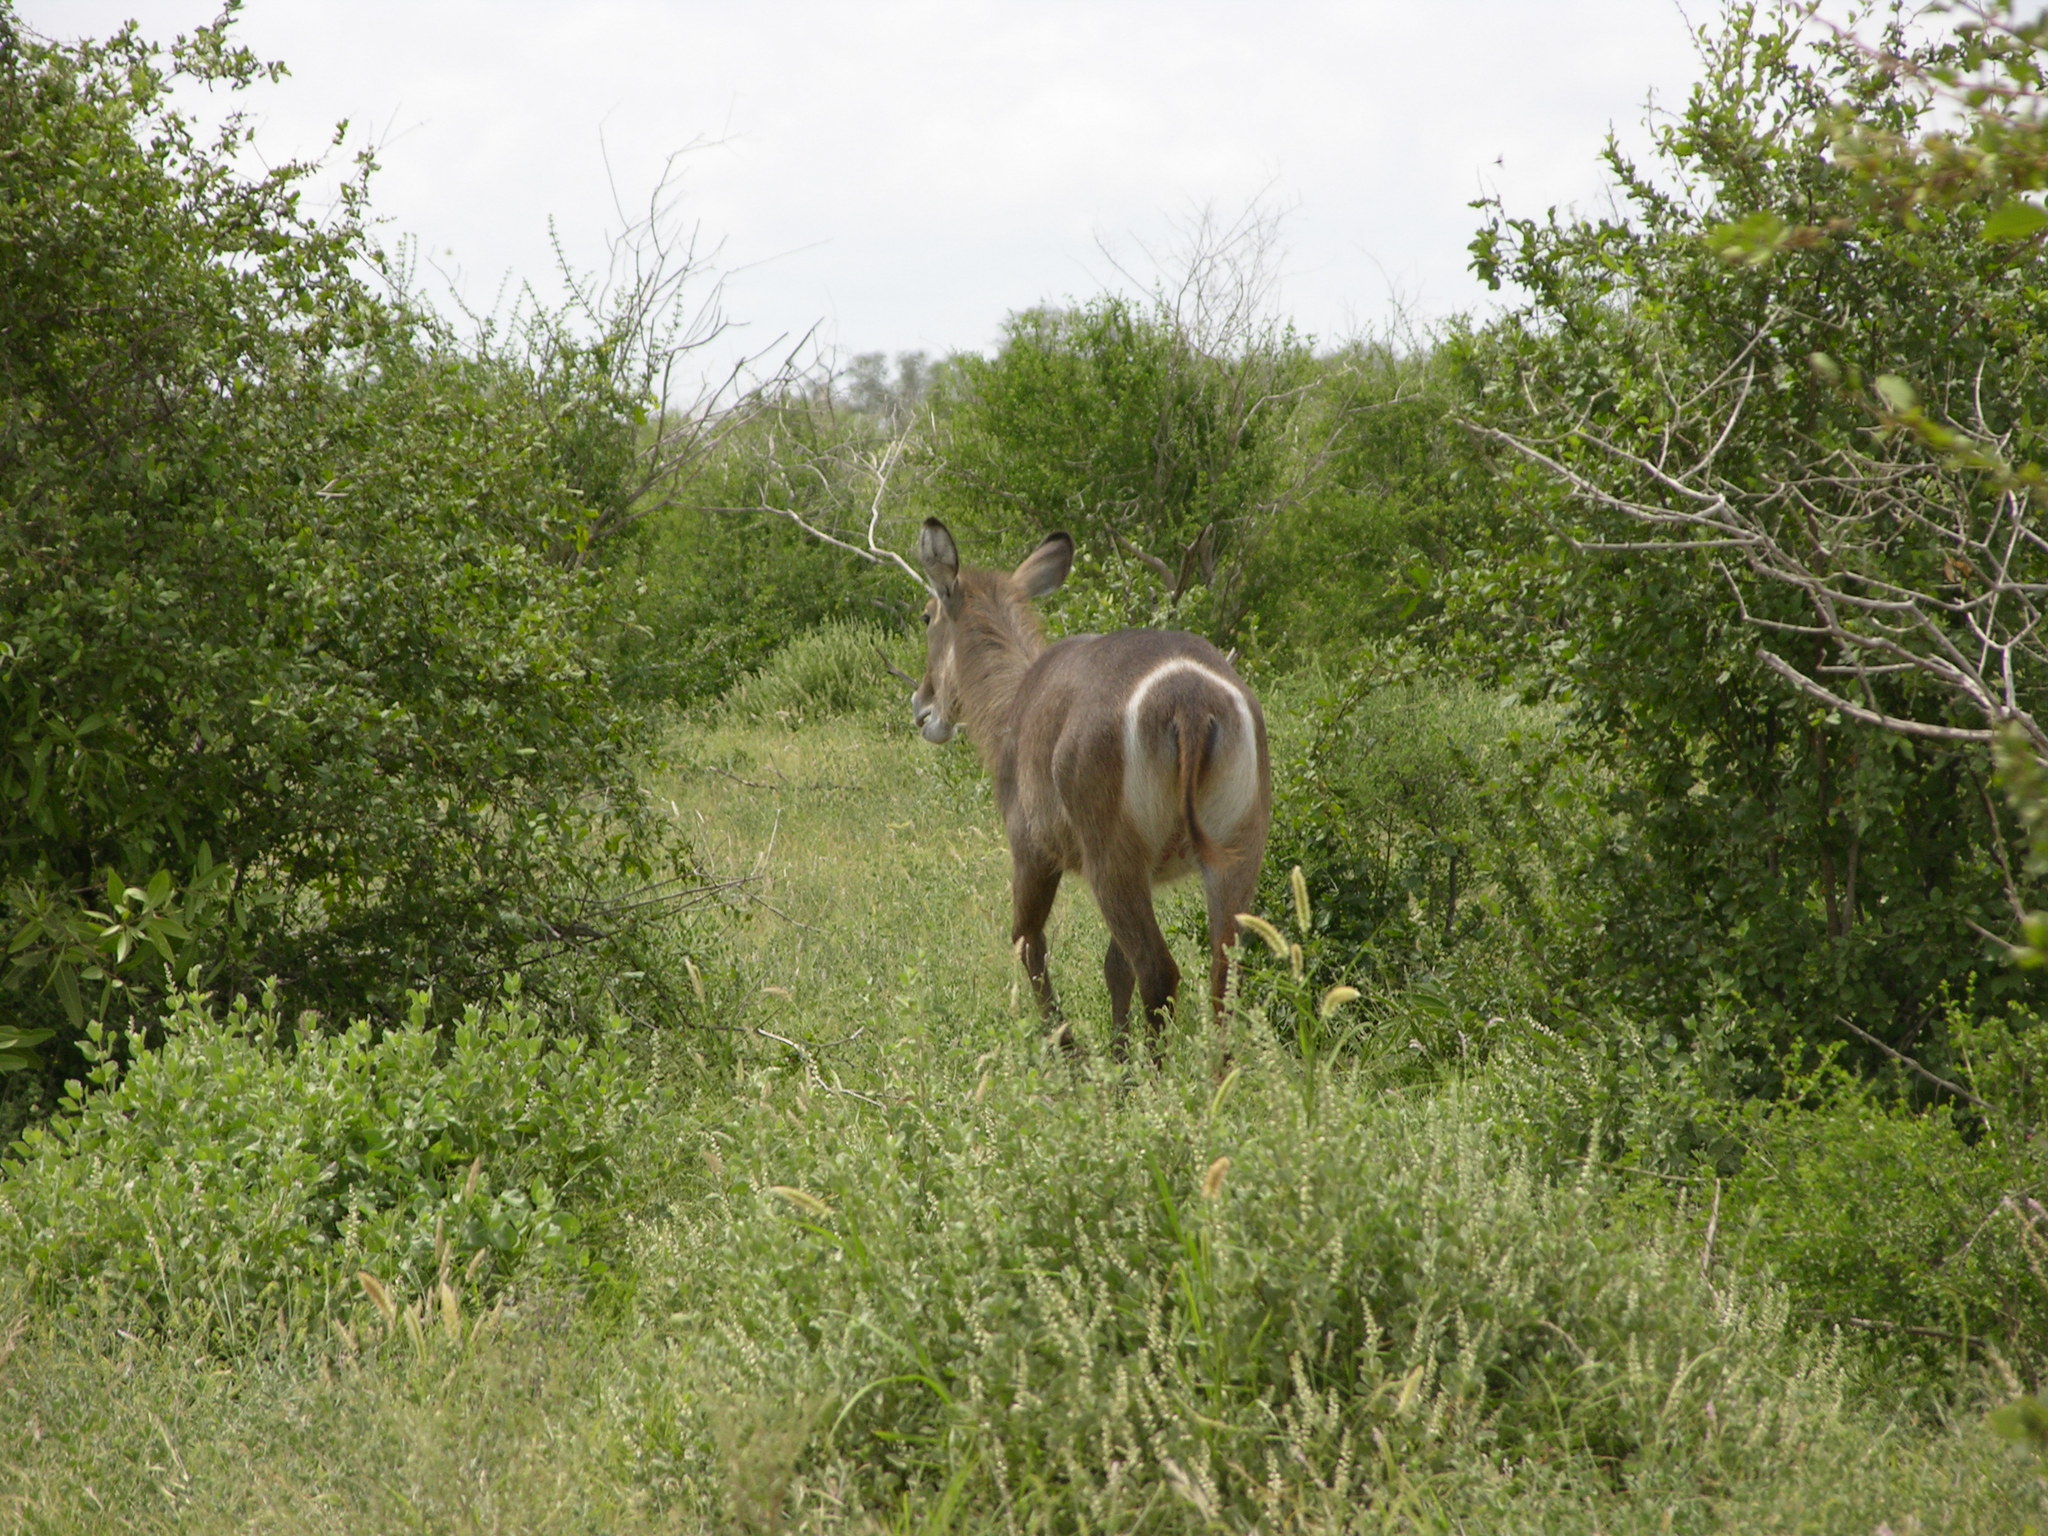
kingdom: Animalia
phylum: Chordata
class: Mammalia
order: Artiodactyla
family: Bovidae
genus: Kobus
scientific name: Kobus ellipsiprymnus
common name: Waterbuck
